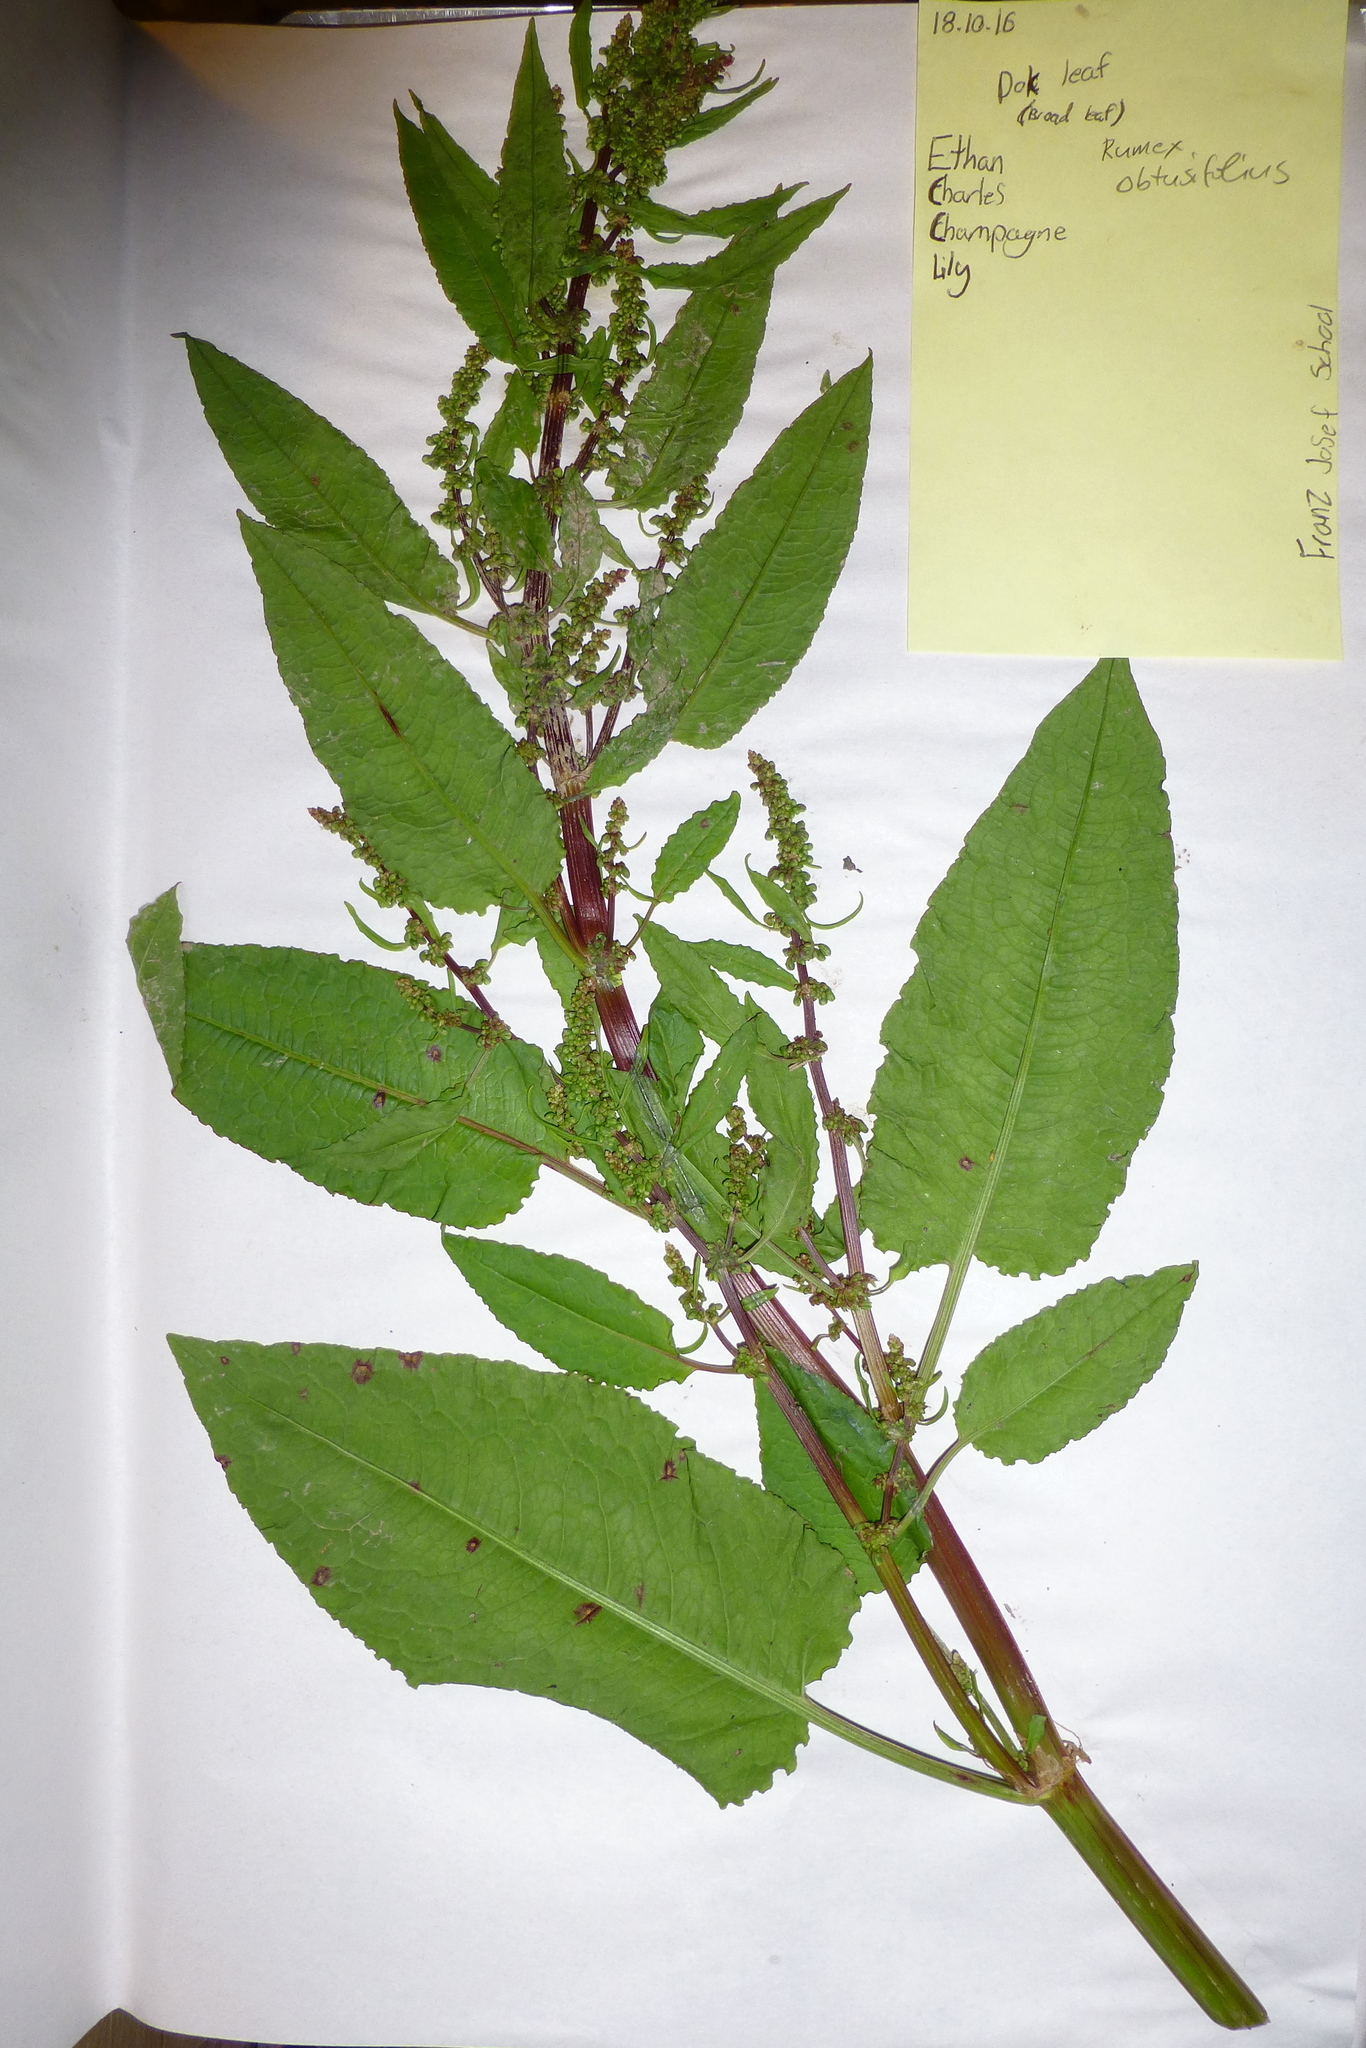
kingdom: Plantae
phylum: Tracheophyta
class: Magnoliopsida
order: Caryophyllales
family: Polygonaceae
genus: Rumex
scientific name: Rumex obtusifolius
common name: Bitter dock
